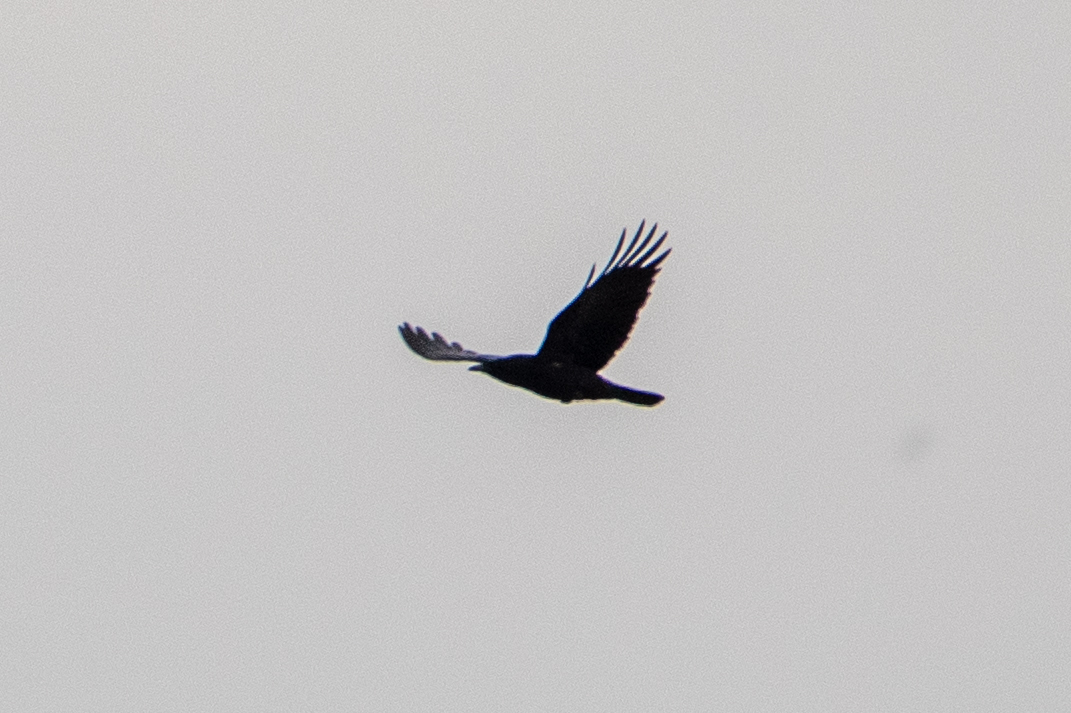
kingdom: Animalia
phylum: Chordata
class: Aves
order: Passeriformes
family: Corvidae
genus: Corvus
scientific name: Corvus brachyrhynchos
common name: American crow
